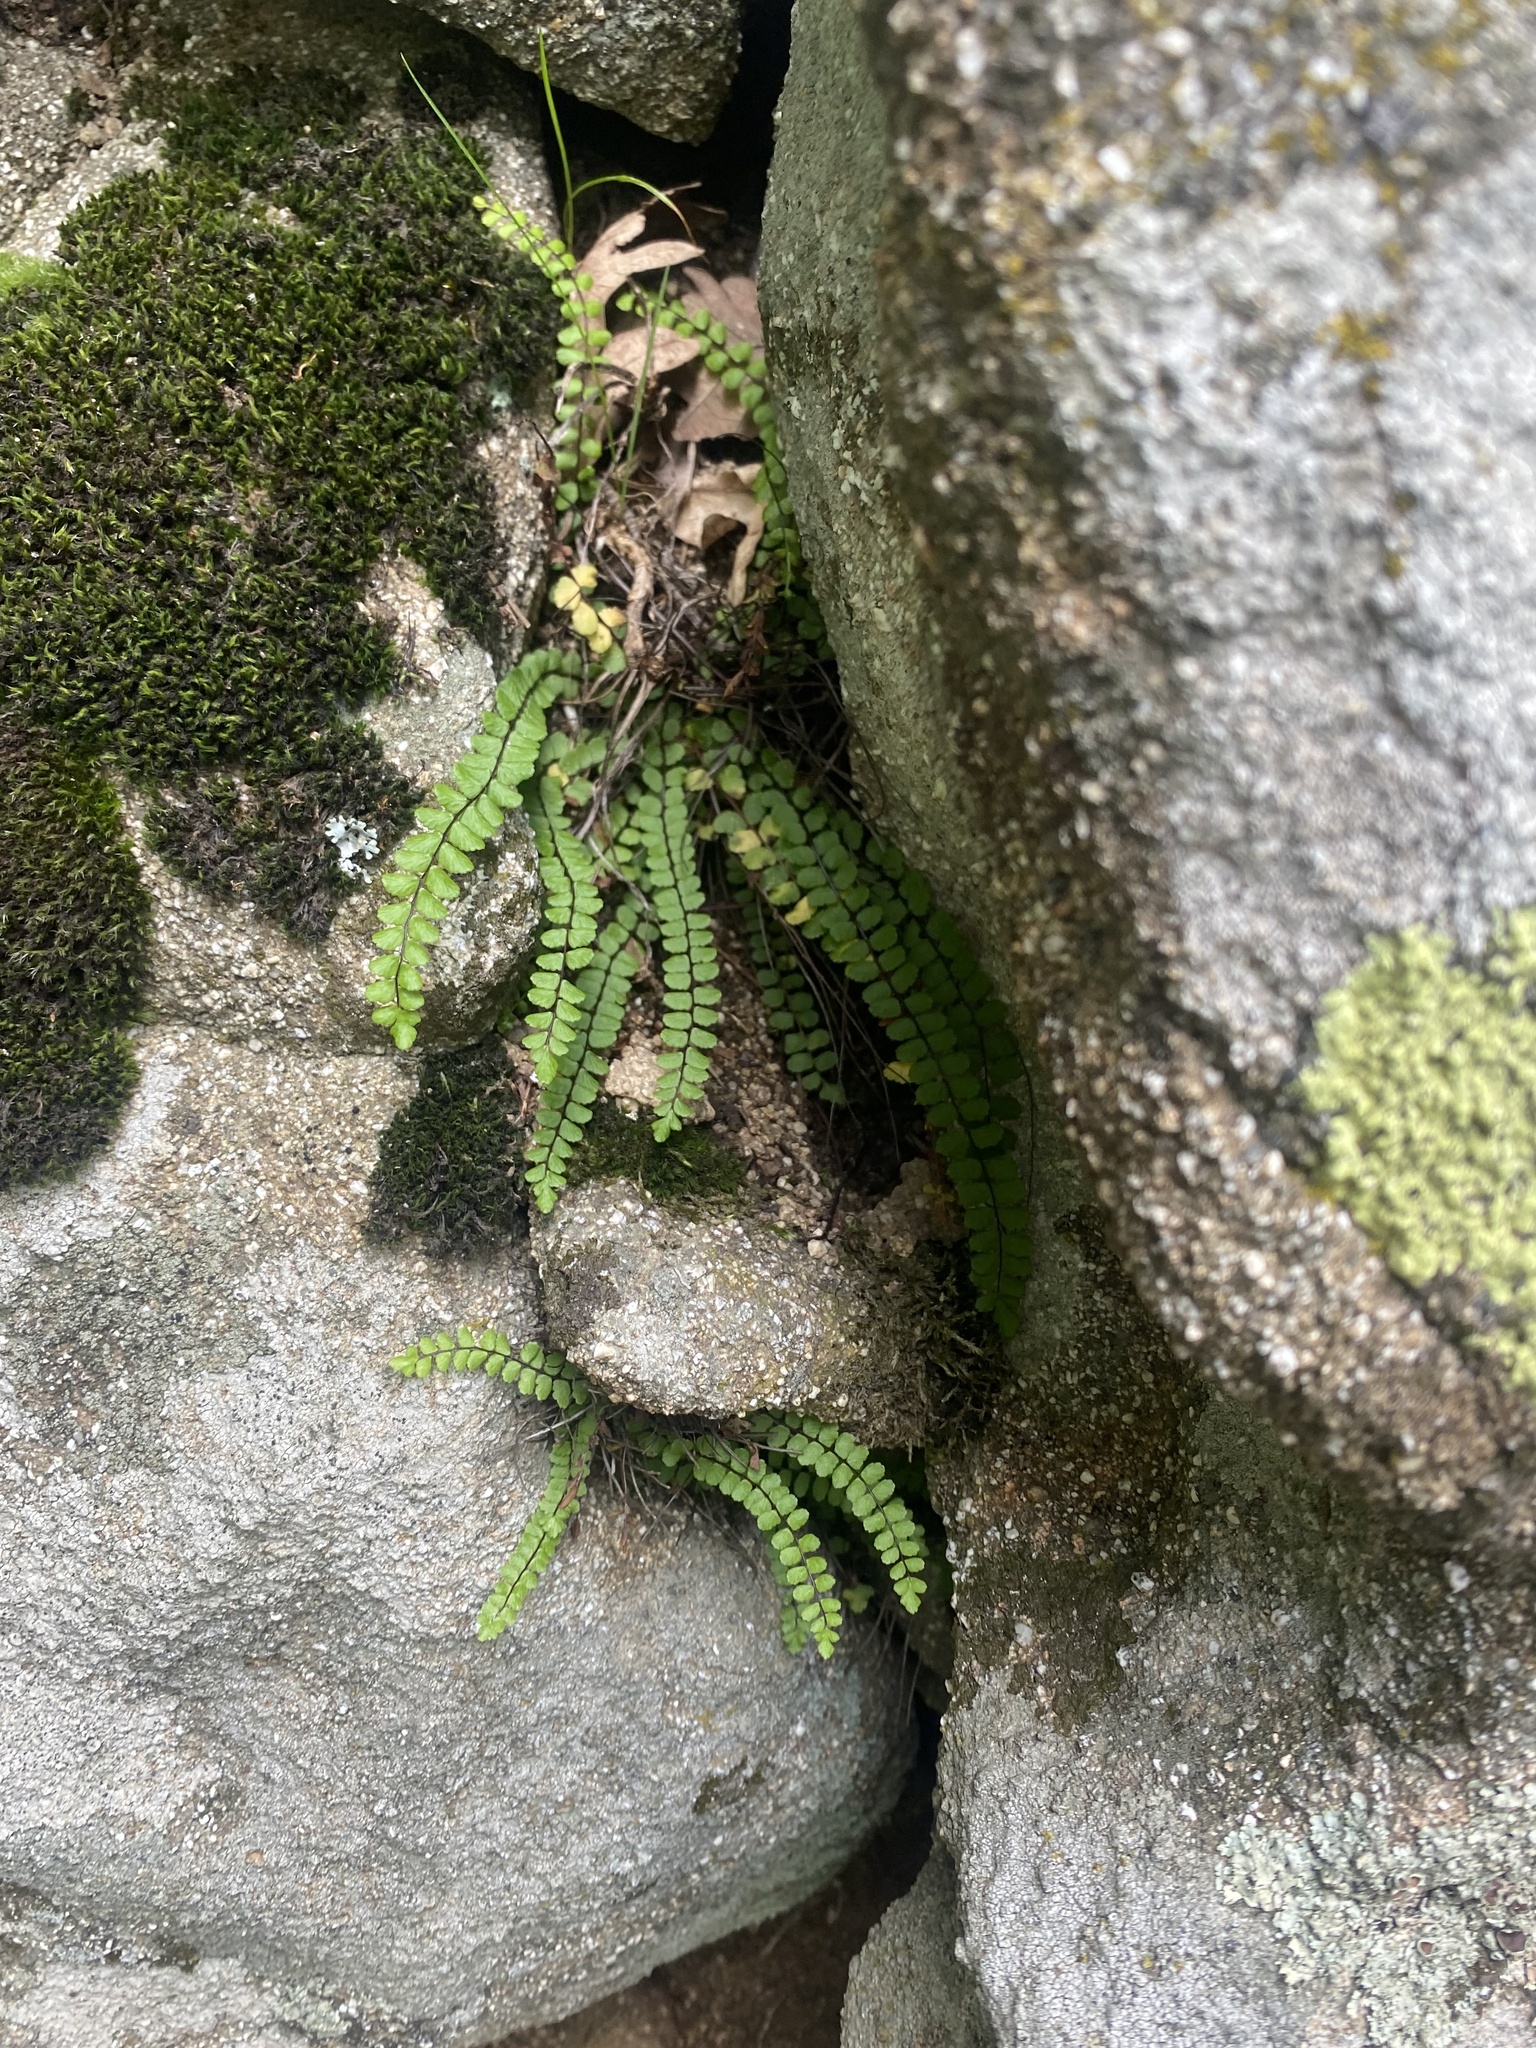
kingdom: Plantae
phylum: Tracheophyta
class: Polypodiopsida
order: Polypodiales
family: Aspleniaceae
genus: Asplenium
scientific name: Asplenium trichomanes
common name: Maidenhair spleenwort
